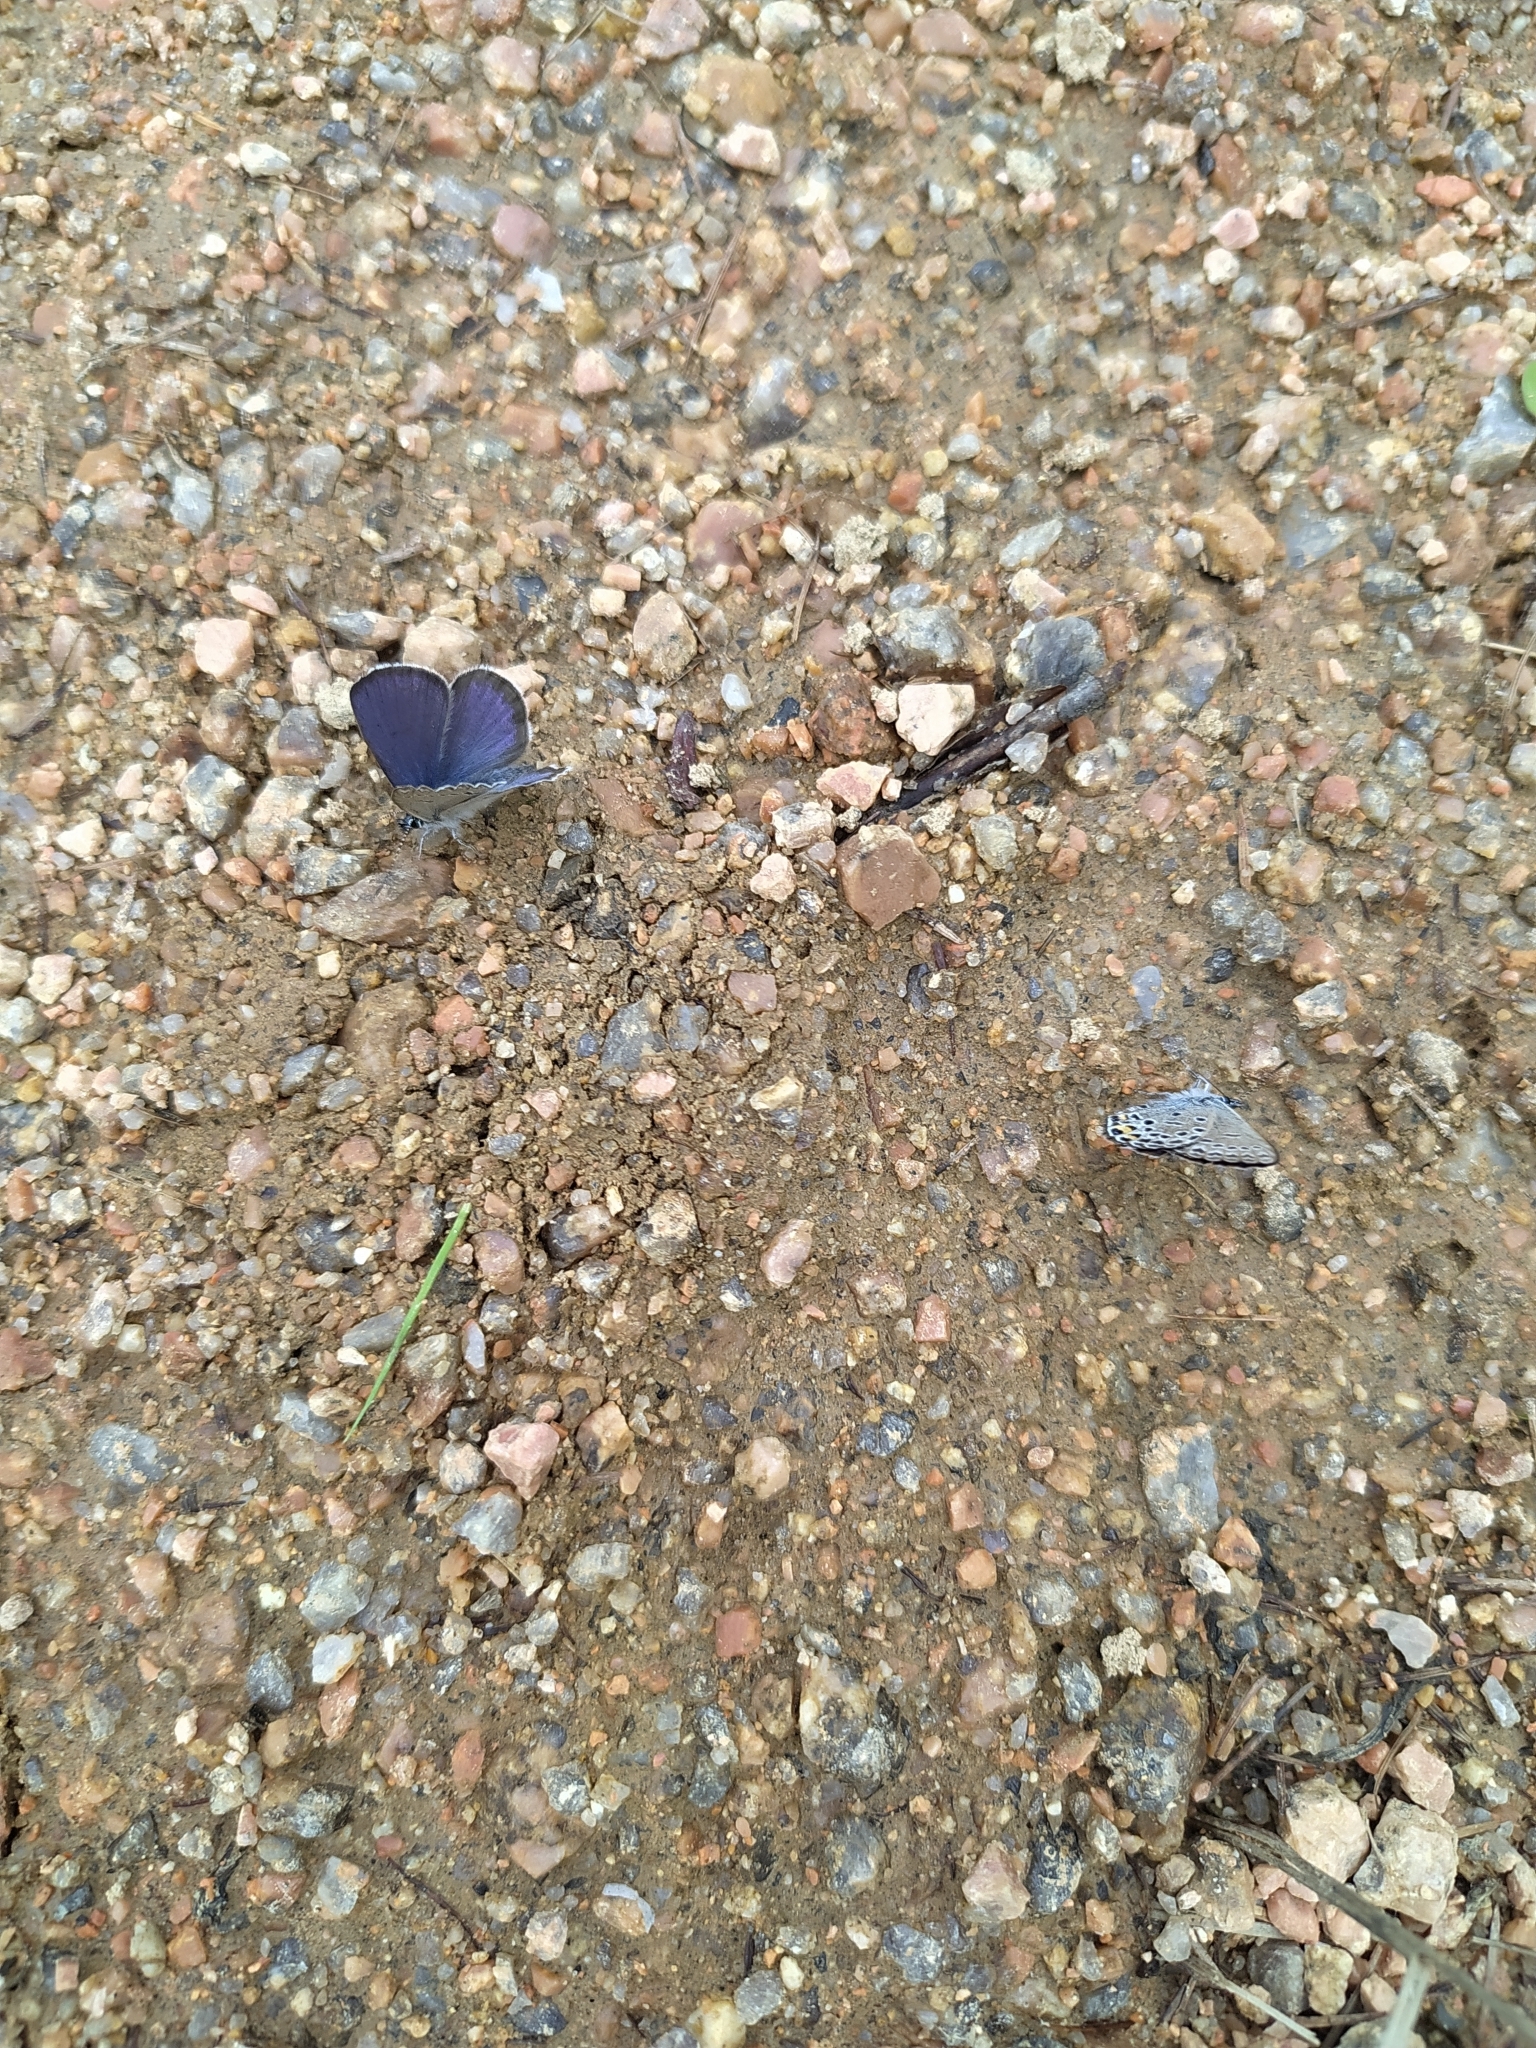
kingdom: Animalia
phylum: Arthropoda
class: Insecta
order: Lepidoptera
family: Lycaenidae
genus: Vacciniina
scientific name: Vacciniina optilete
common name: Cranberry blue
